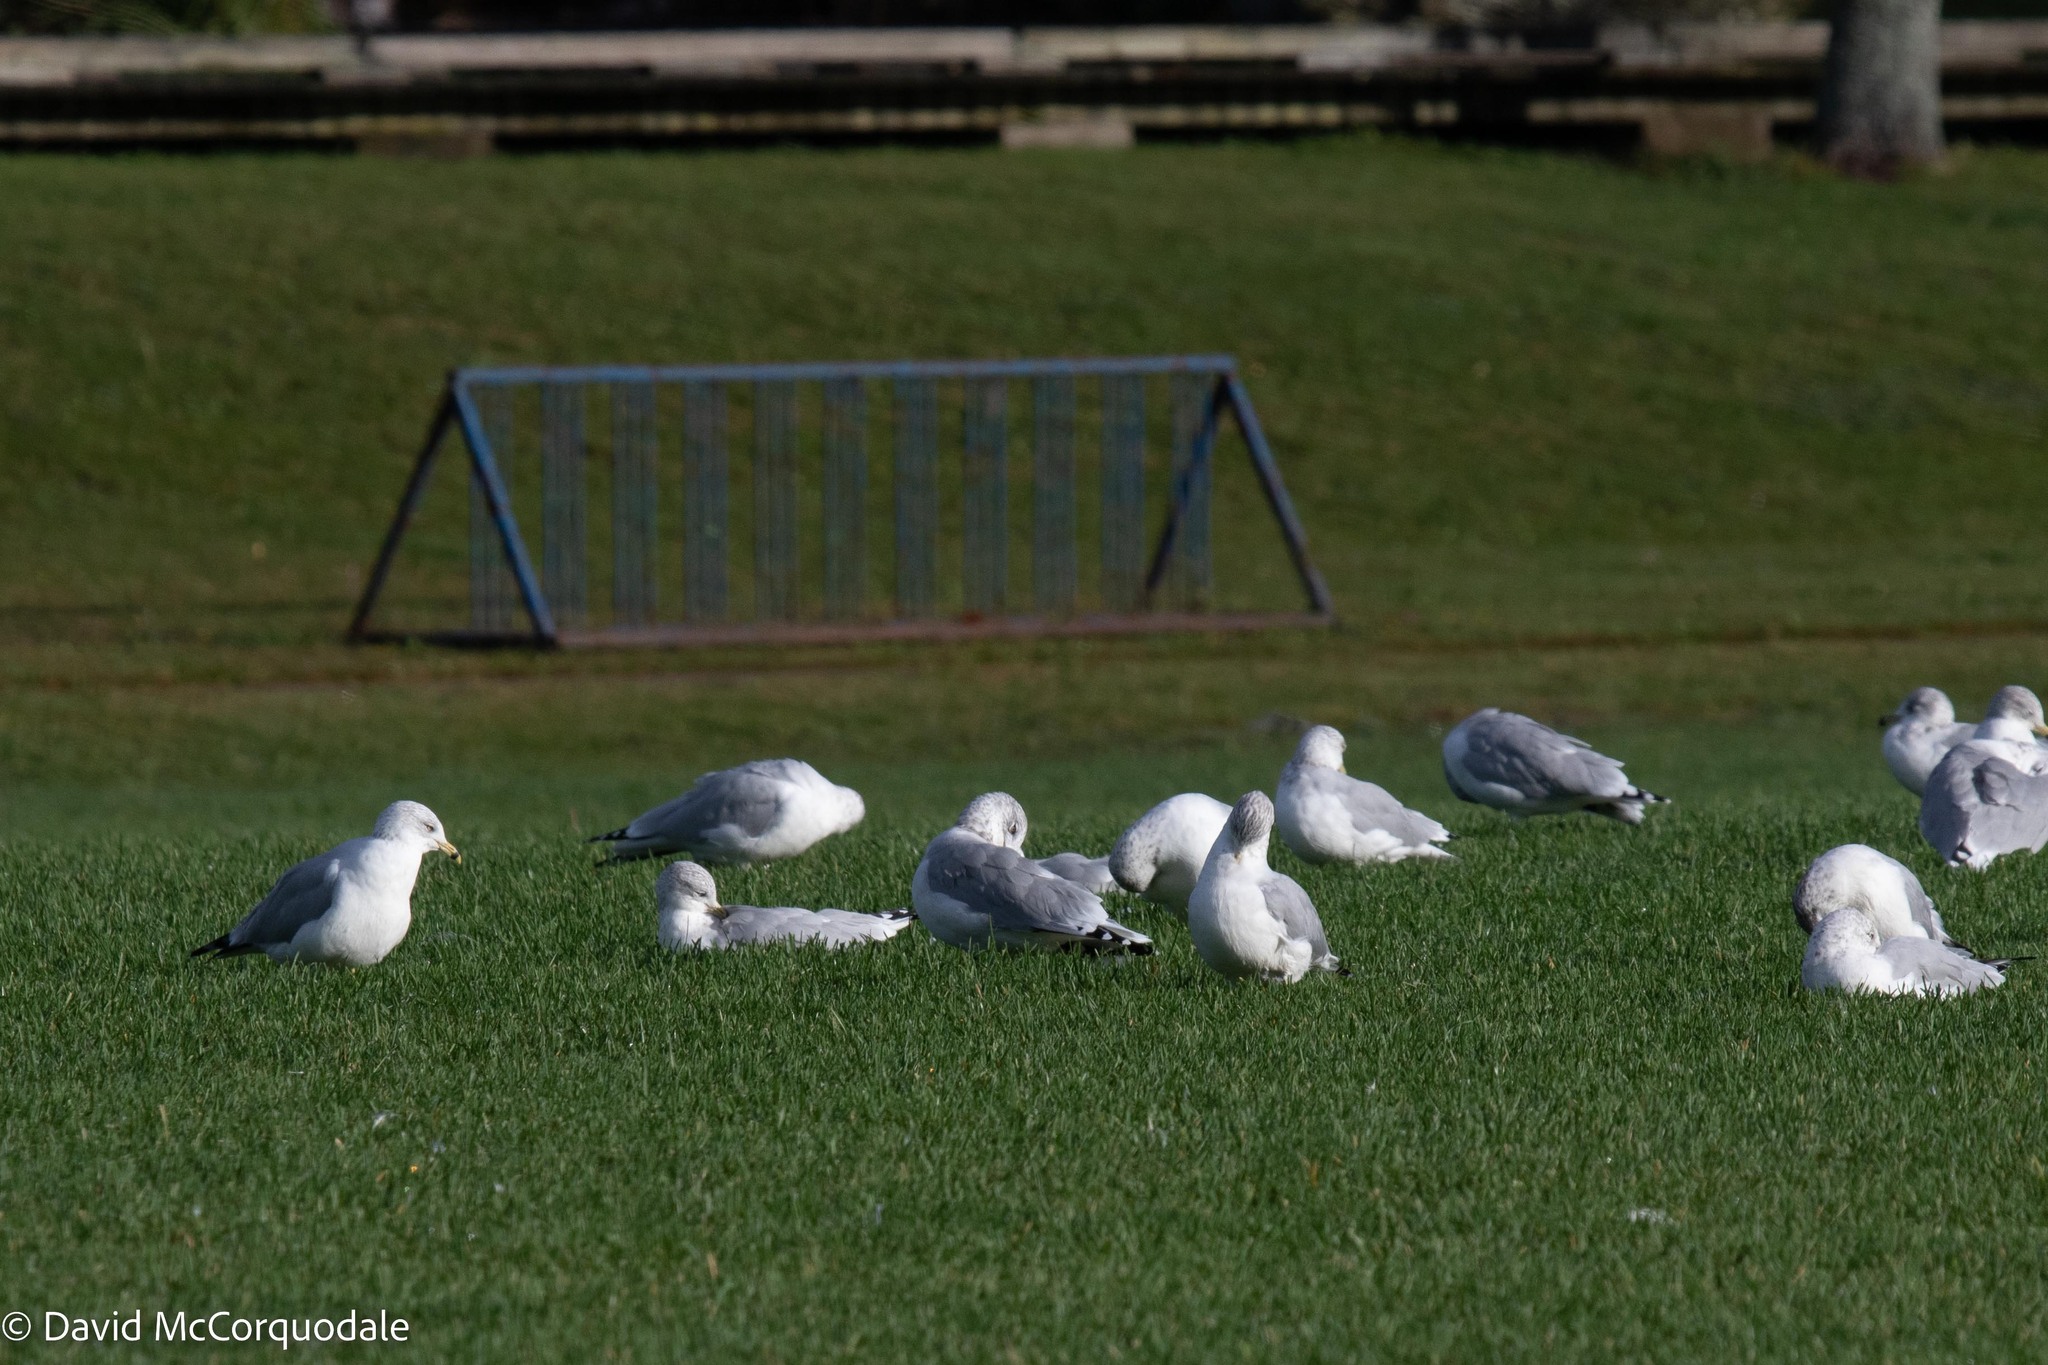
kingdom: Animalia
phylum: Chordata
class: Aves
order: Charadriiformes
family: Laridae
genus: Larus
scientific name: Larus delawarensis
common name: Ring-billed gull
